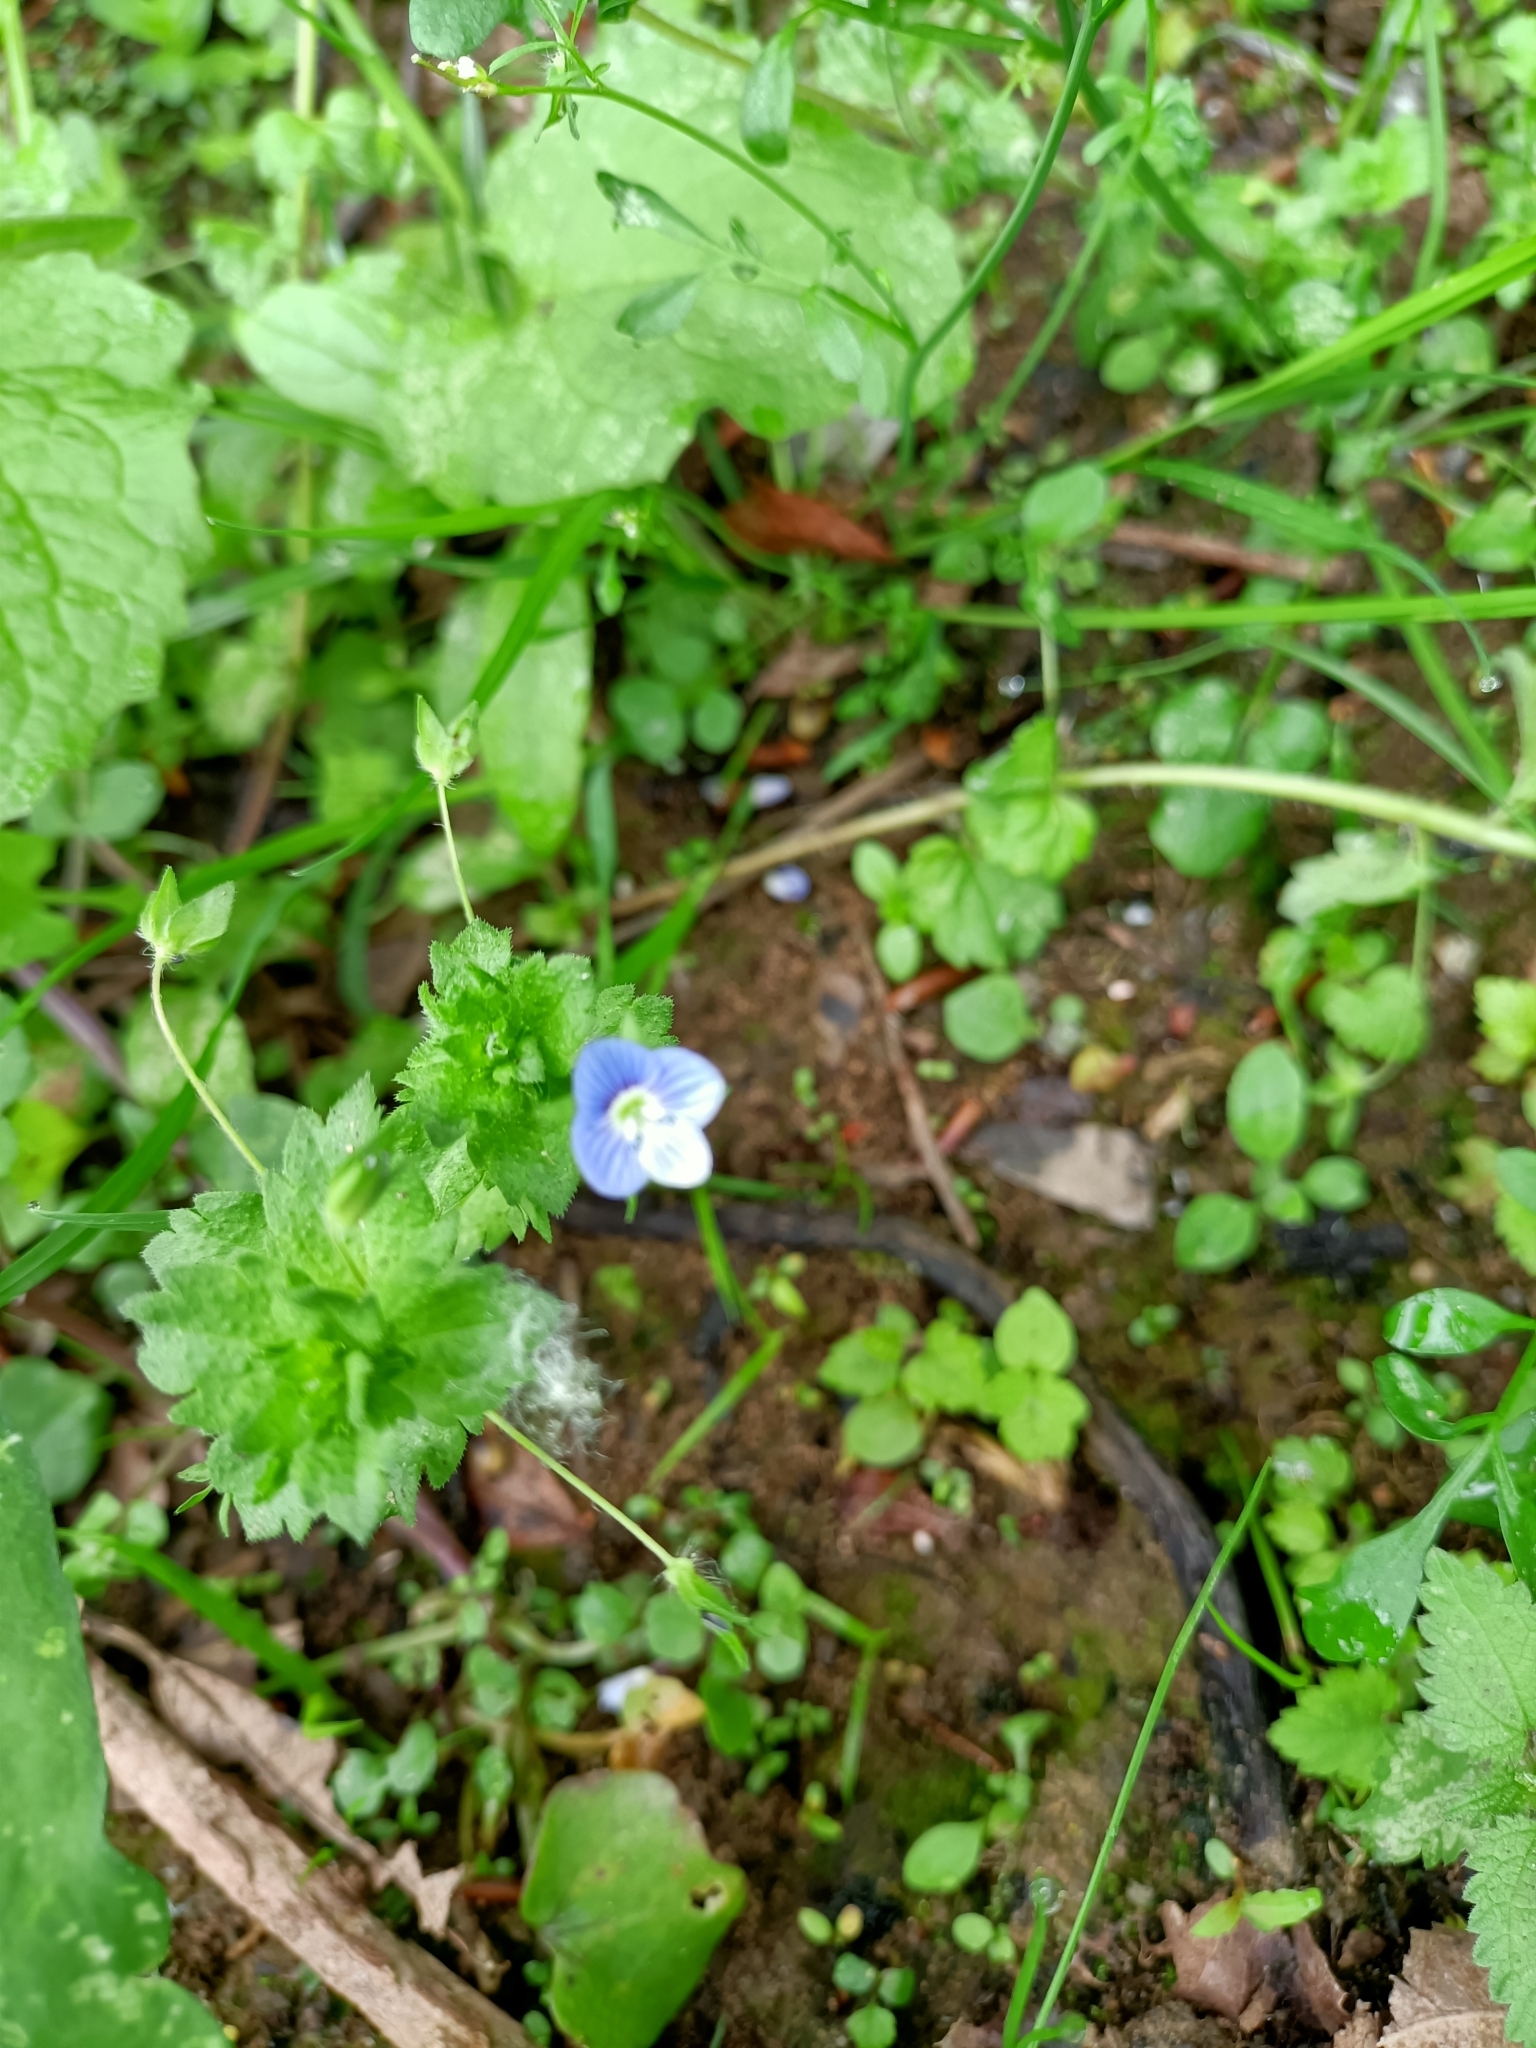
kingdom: Plantae
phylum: Tracheophyta
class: Magnoliopsida
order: Lamiales
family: Plantaginaceae
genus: Veronica
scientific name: Veronica persica
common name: Common field-speedwell
